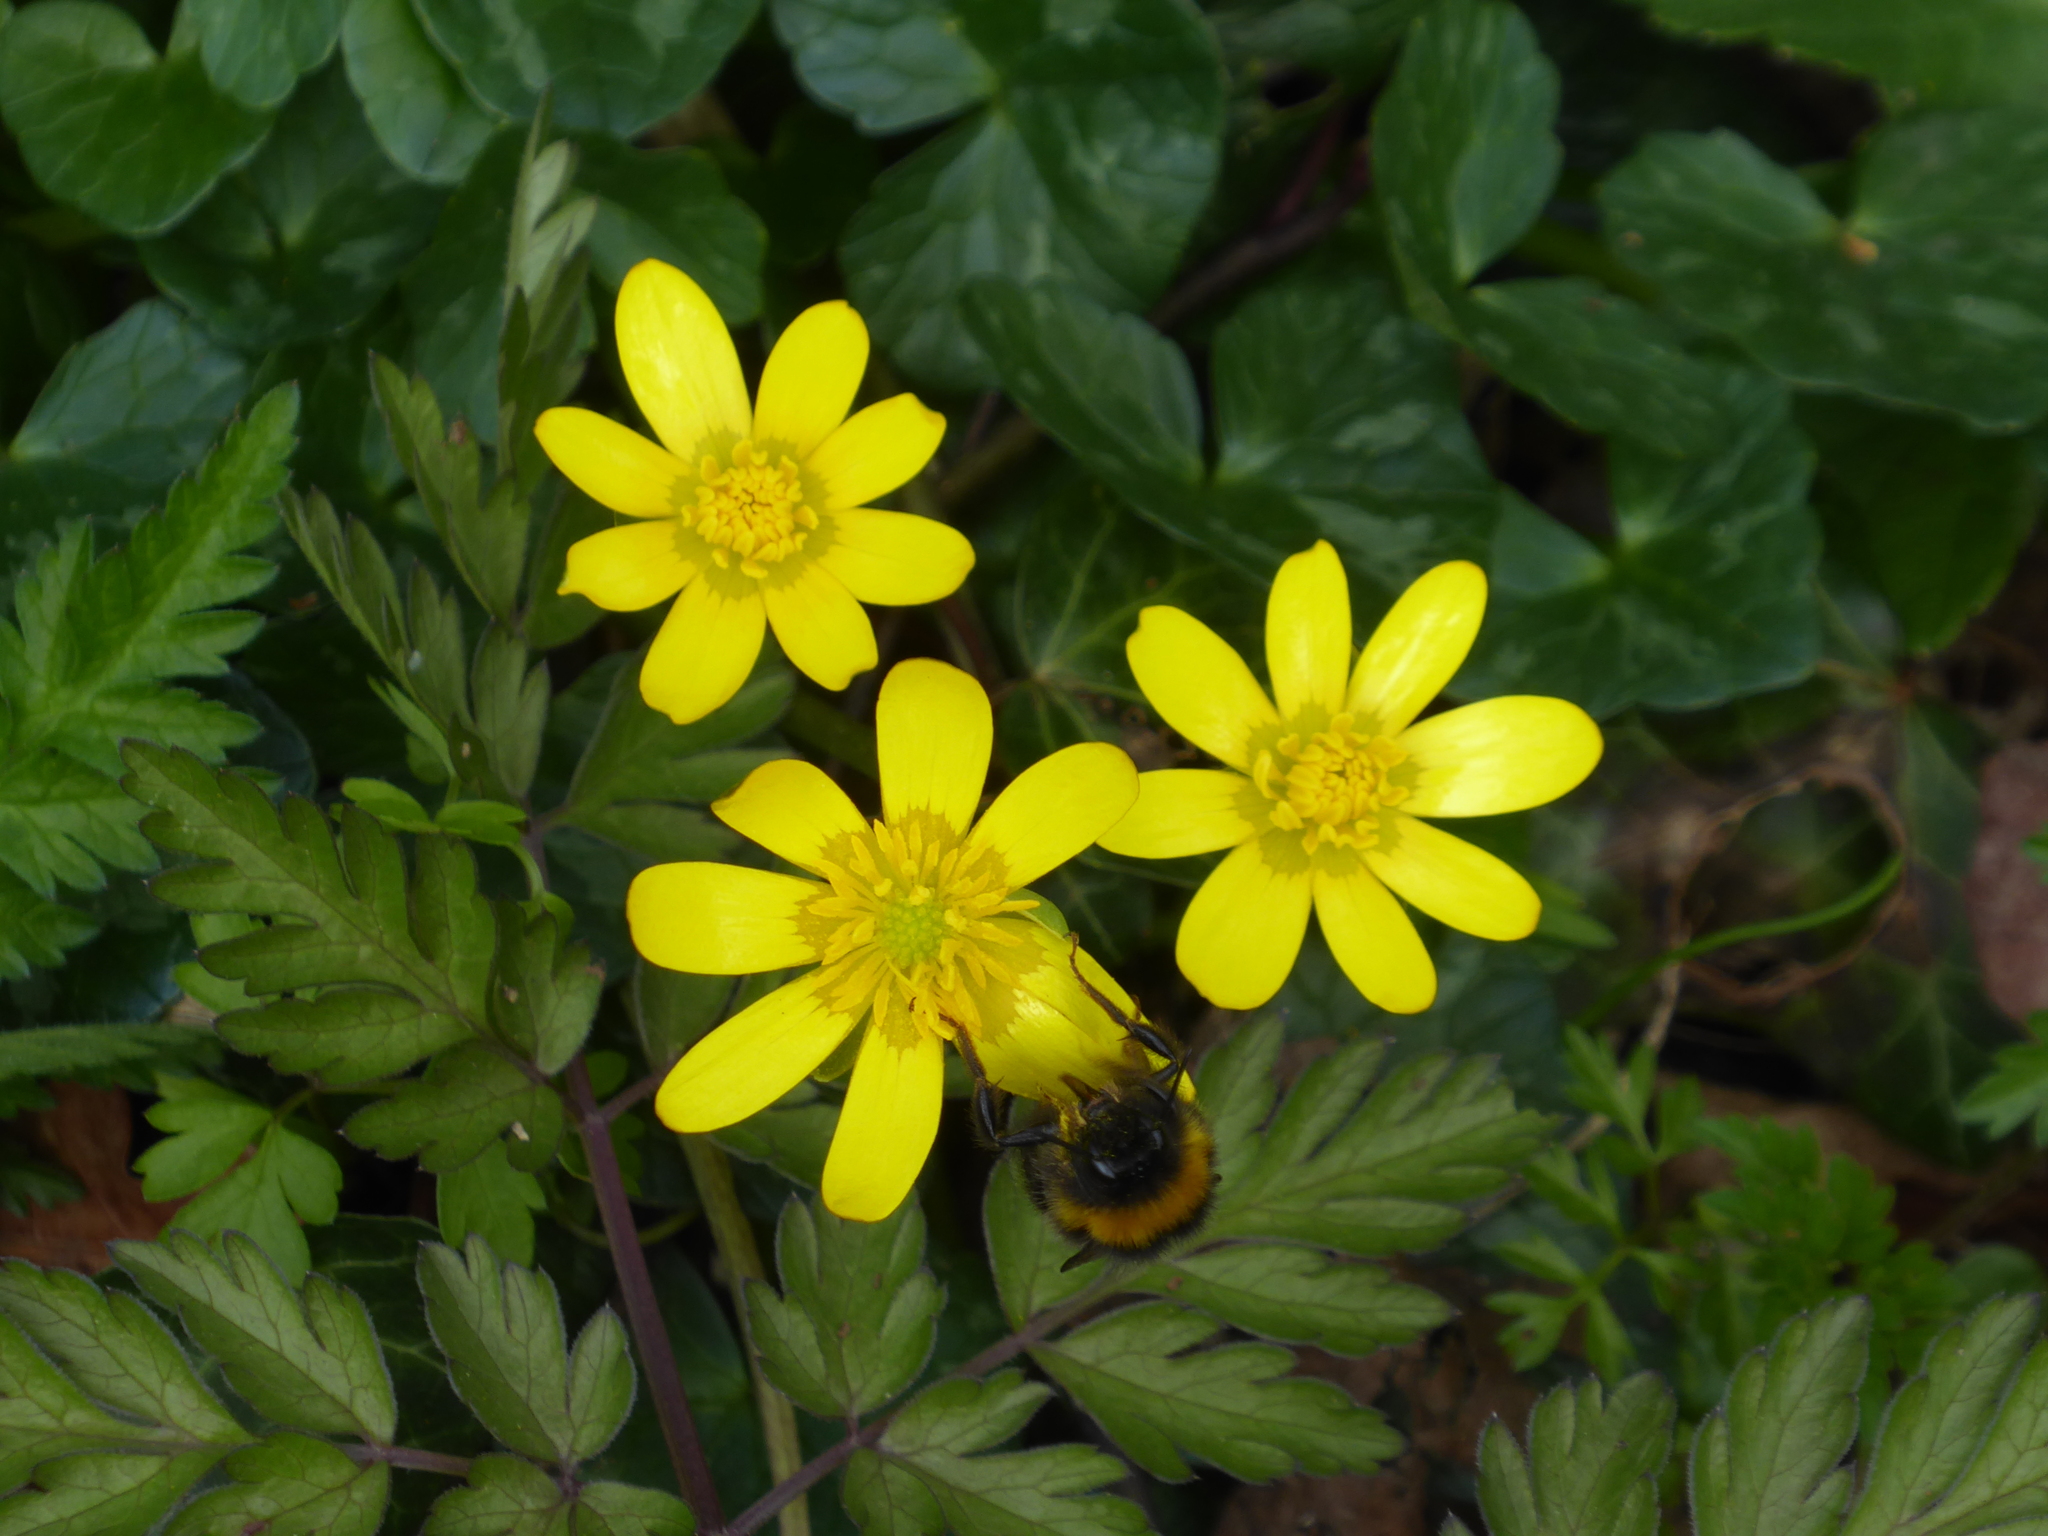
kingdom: Plantae
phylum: Tracheophyta
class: Magnoliopsida
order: Ranunculales
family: Ranunculaceae
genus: Ficaria
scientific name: Ficaria verna
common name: Lesser celandine
